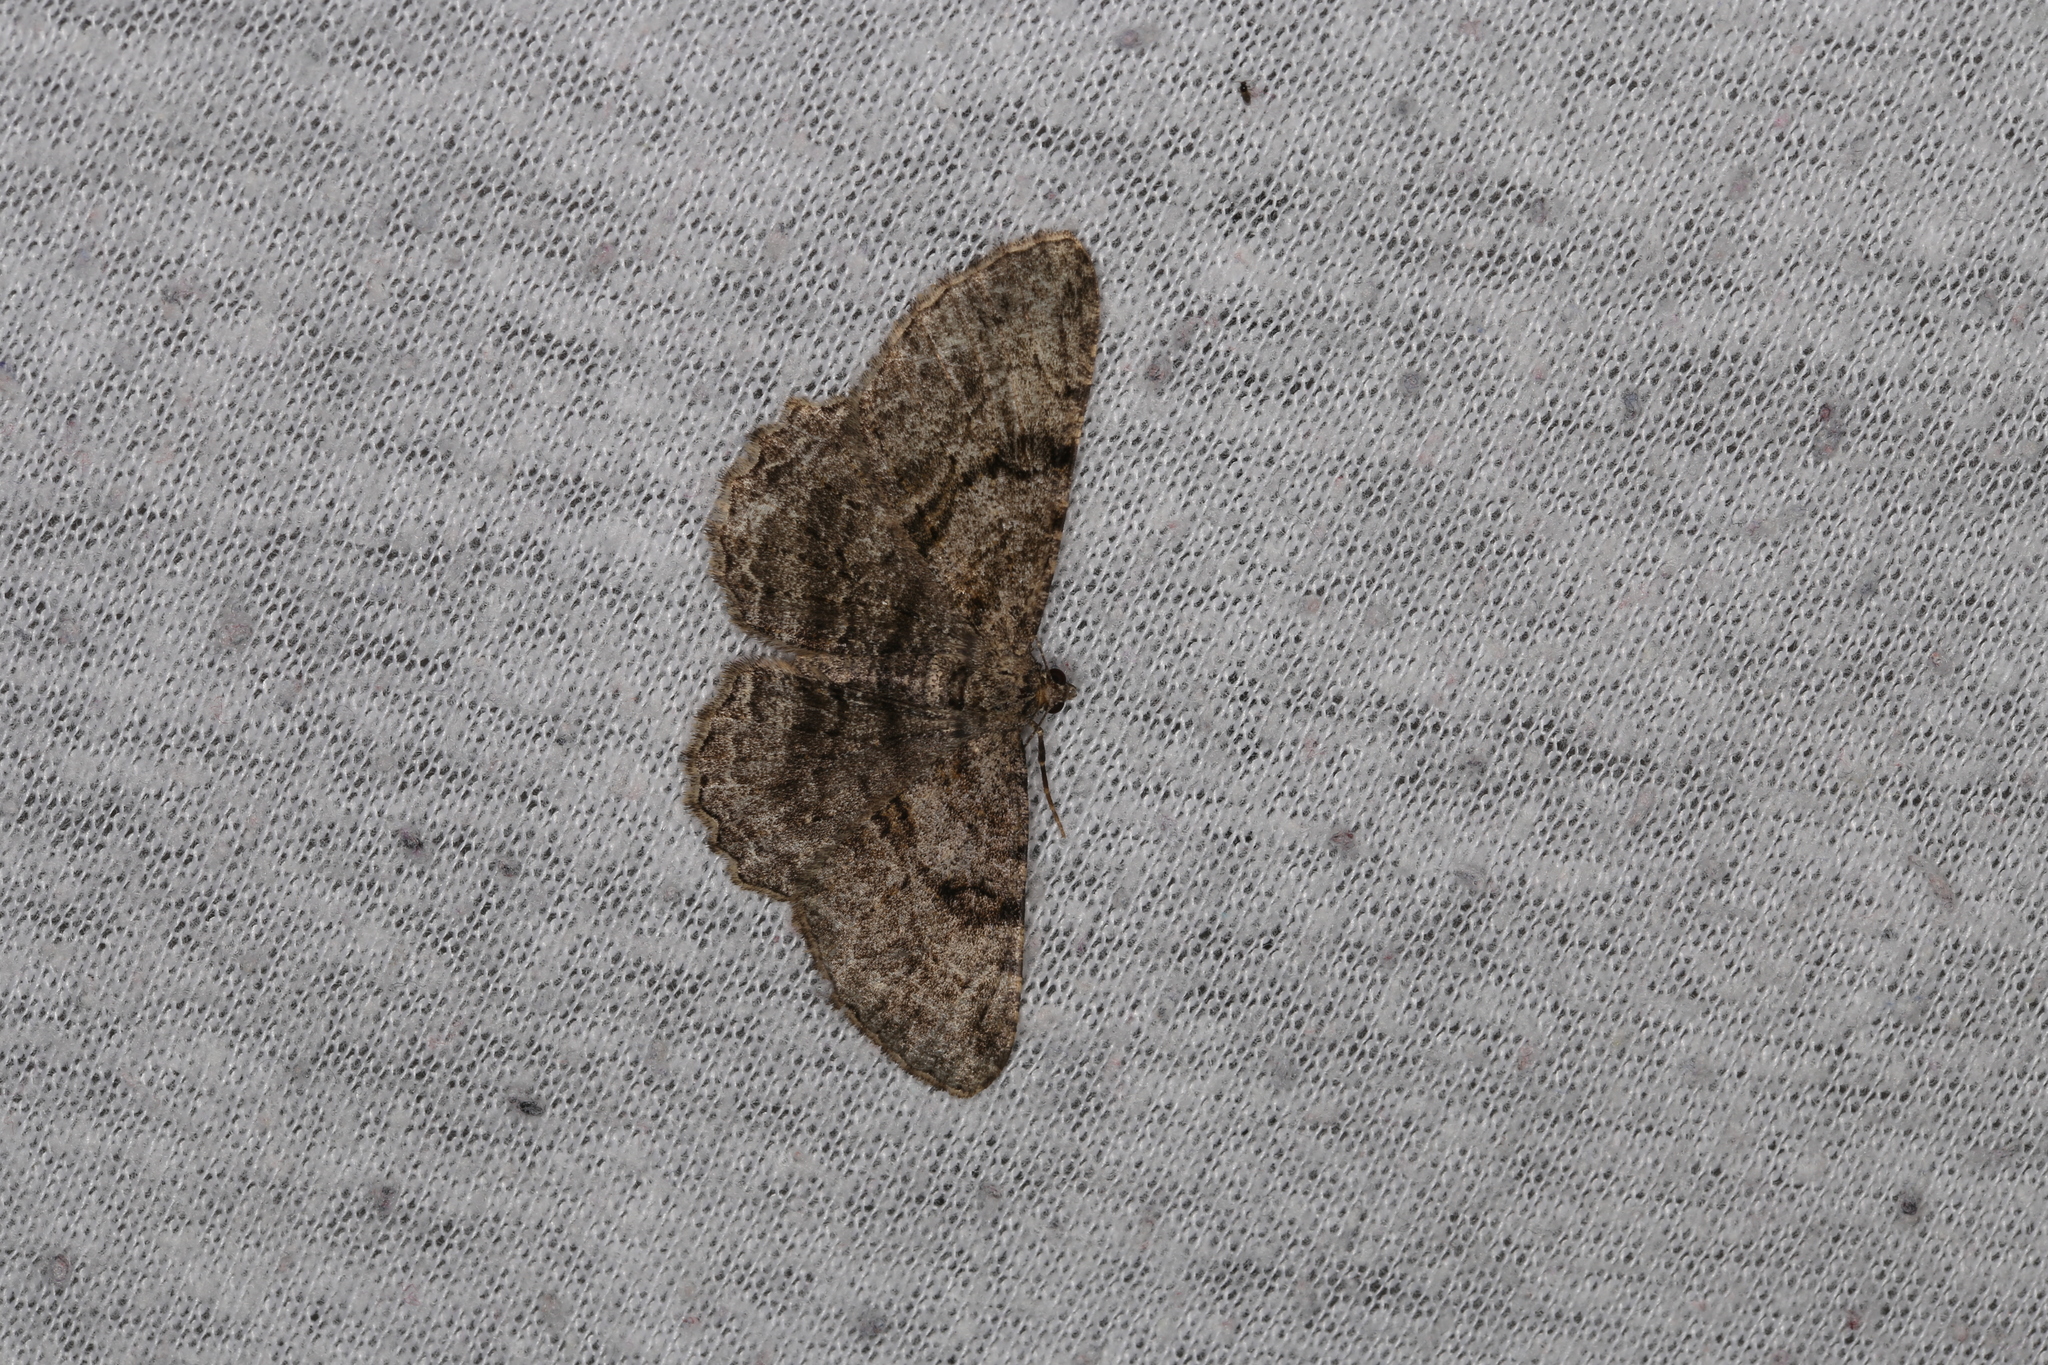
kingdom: Animalia
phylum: Arthropoda
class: Insecta
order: Lepidoptera
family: Geometridae
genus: Peribatodes
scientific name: Peribatodes rhomboidaria
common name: Willow beauty
